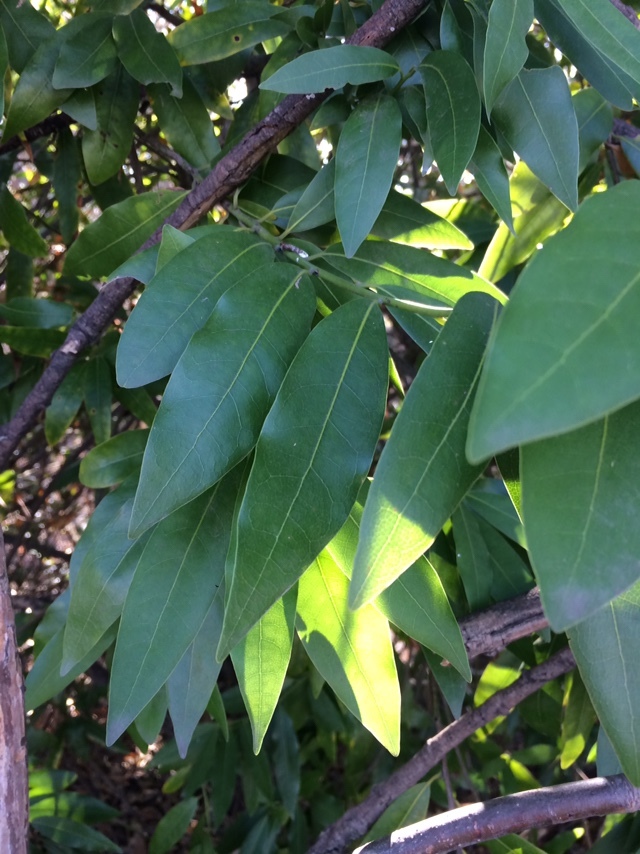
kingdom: Plantae
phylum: Tracheophyta
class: Magnoliopsida
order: Laurales
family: Lauraceae
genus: Umbellularia
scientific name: Umbellularia californica
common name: California bay
